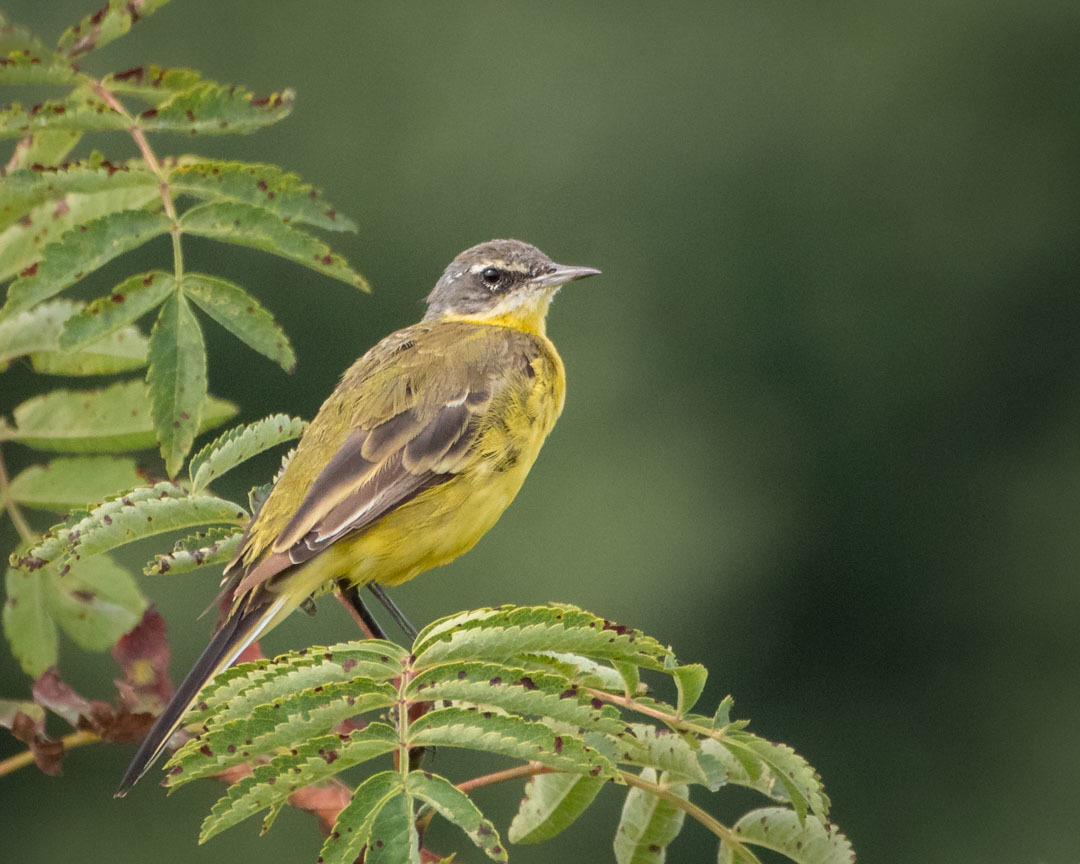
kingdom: Animalia
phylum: Chordata
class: Aves
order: Passeriformes
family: Motacillidae
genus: Motacilla
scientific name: Motacilla flava
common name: Western yellow wagtail
